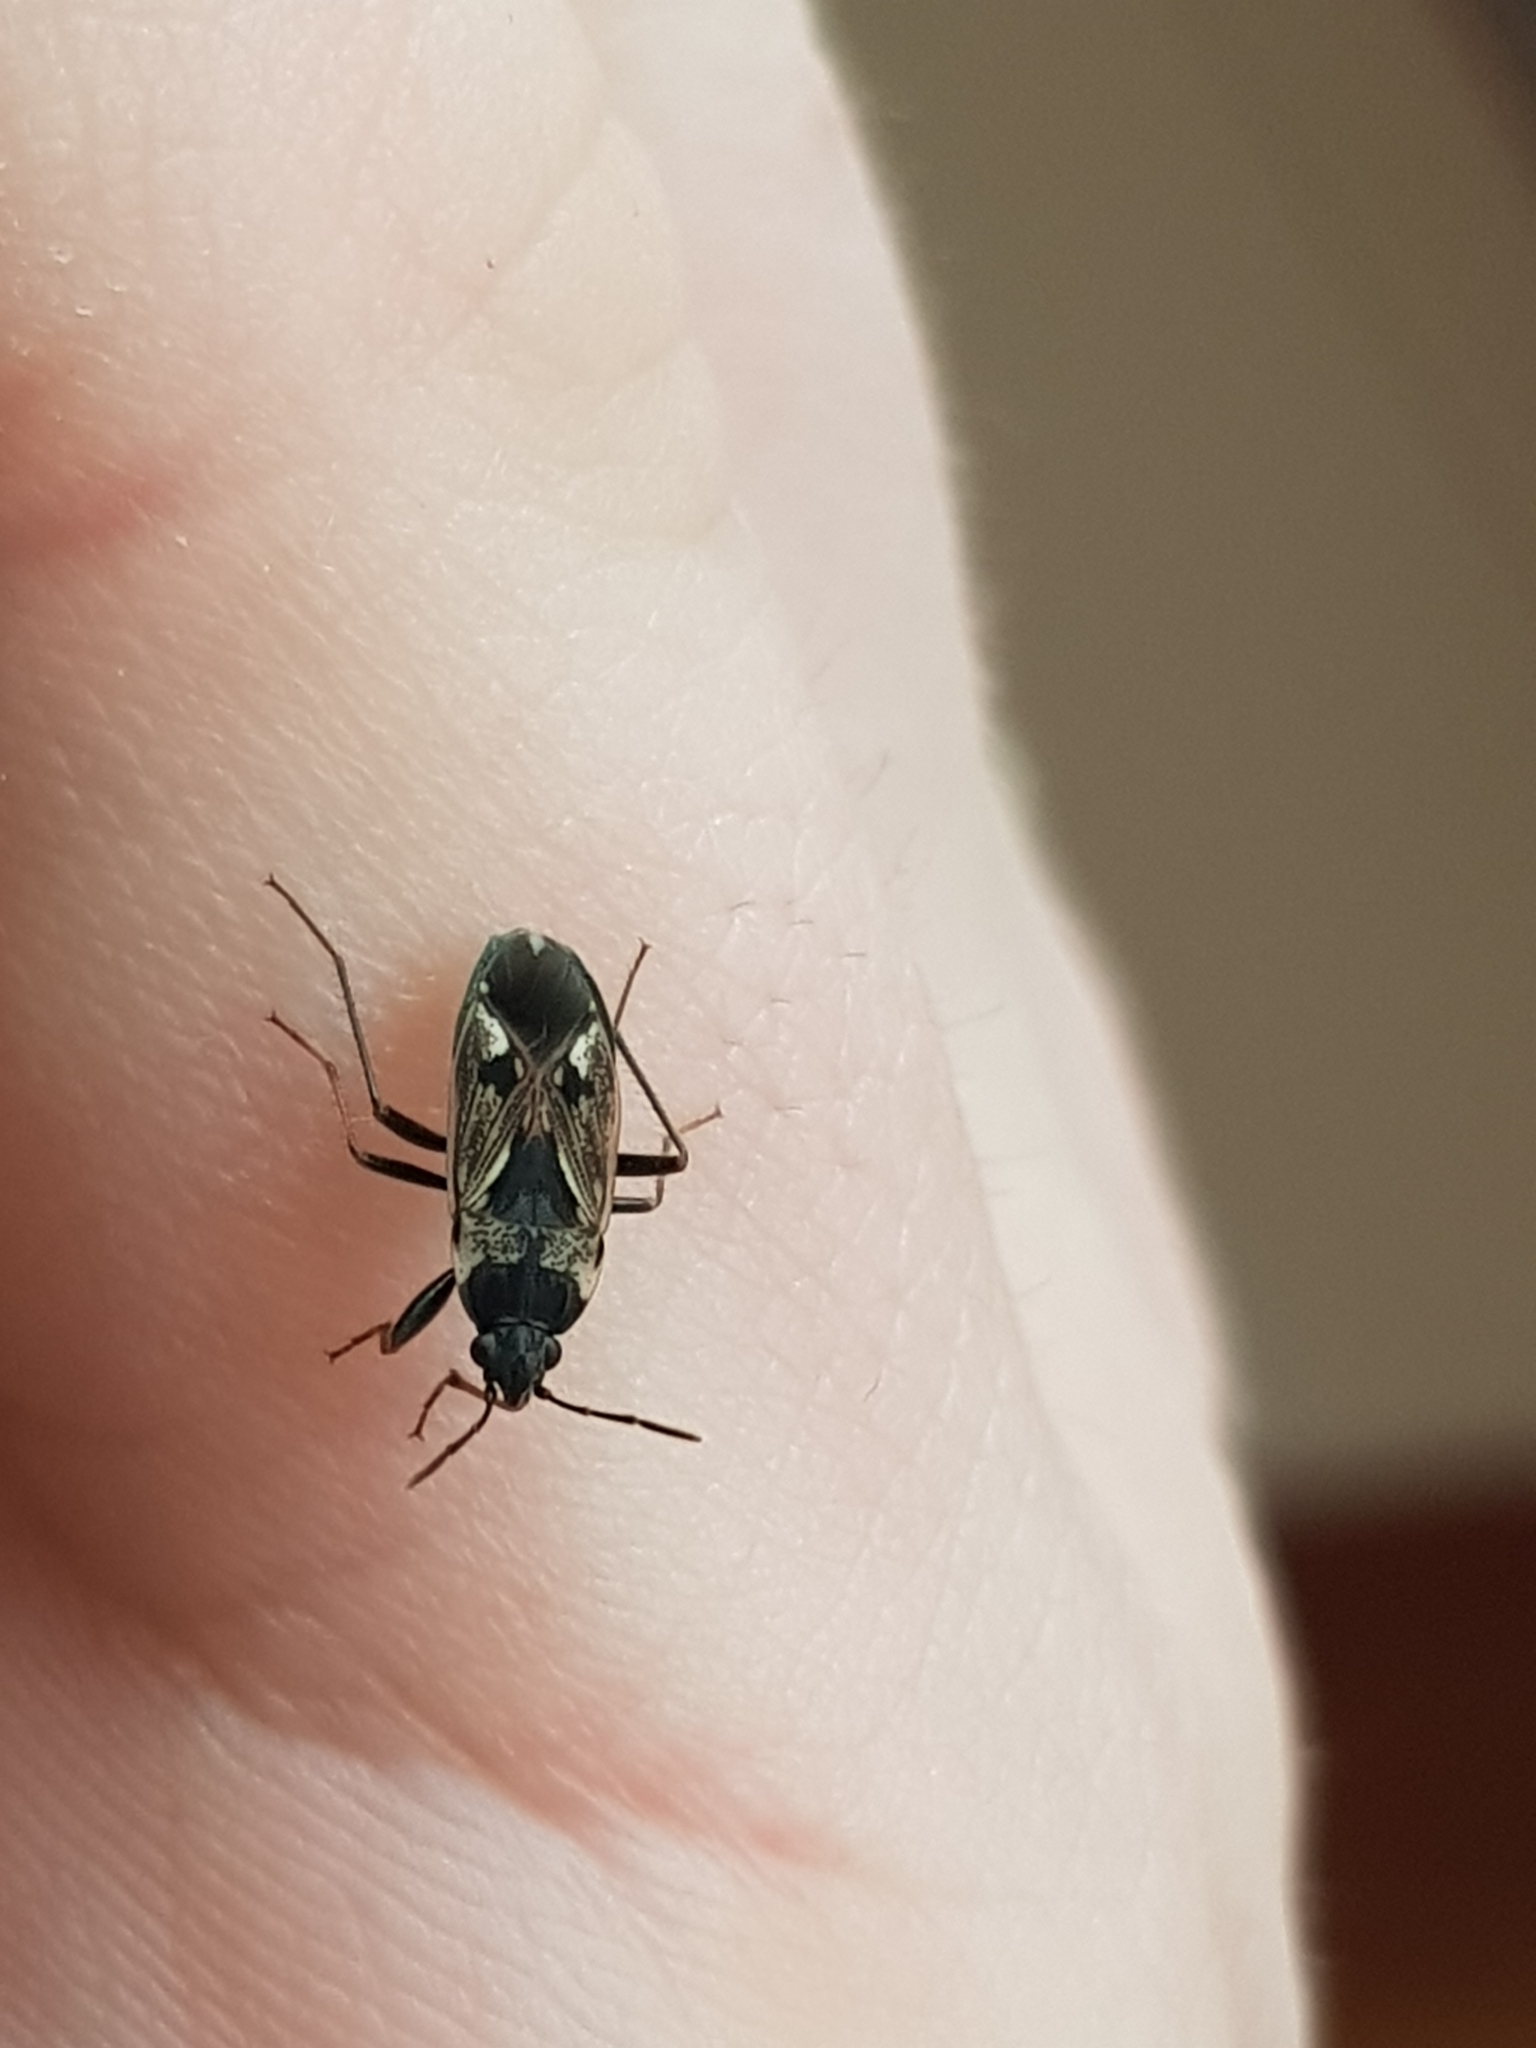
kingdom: Animalia
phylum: Arthropoda
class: Insecta
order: Hemiptera
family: Rhyparochromidae
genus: Rhyparochromus
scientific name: Rhyparochromus vulgaris
